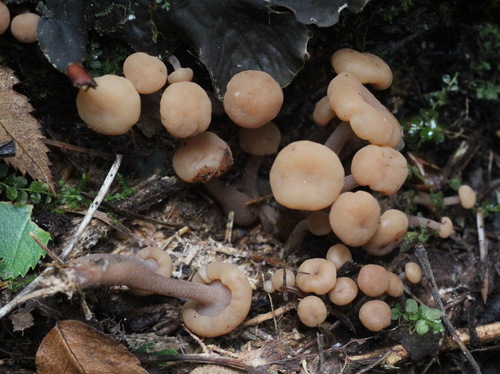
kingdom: Fungi
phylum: Ascomycota
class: Leotiomycetes
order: Rhytismatales
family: Cudoniaceae
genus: Cudonia
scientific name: Cudonia circinans
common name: Redleg jellybaby
